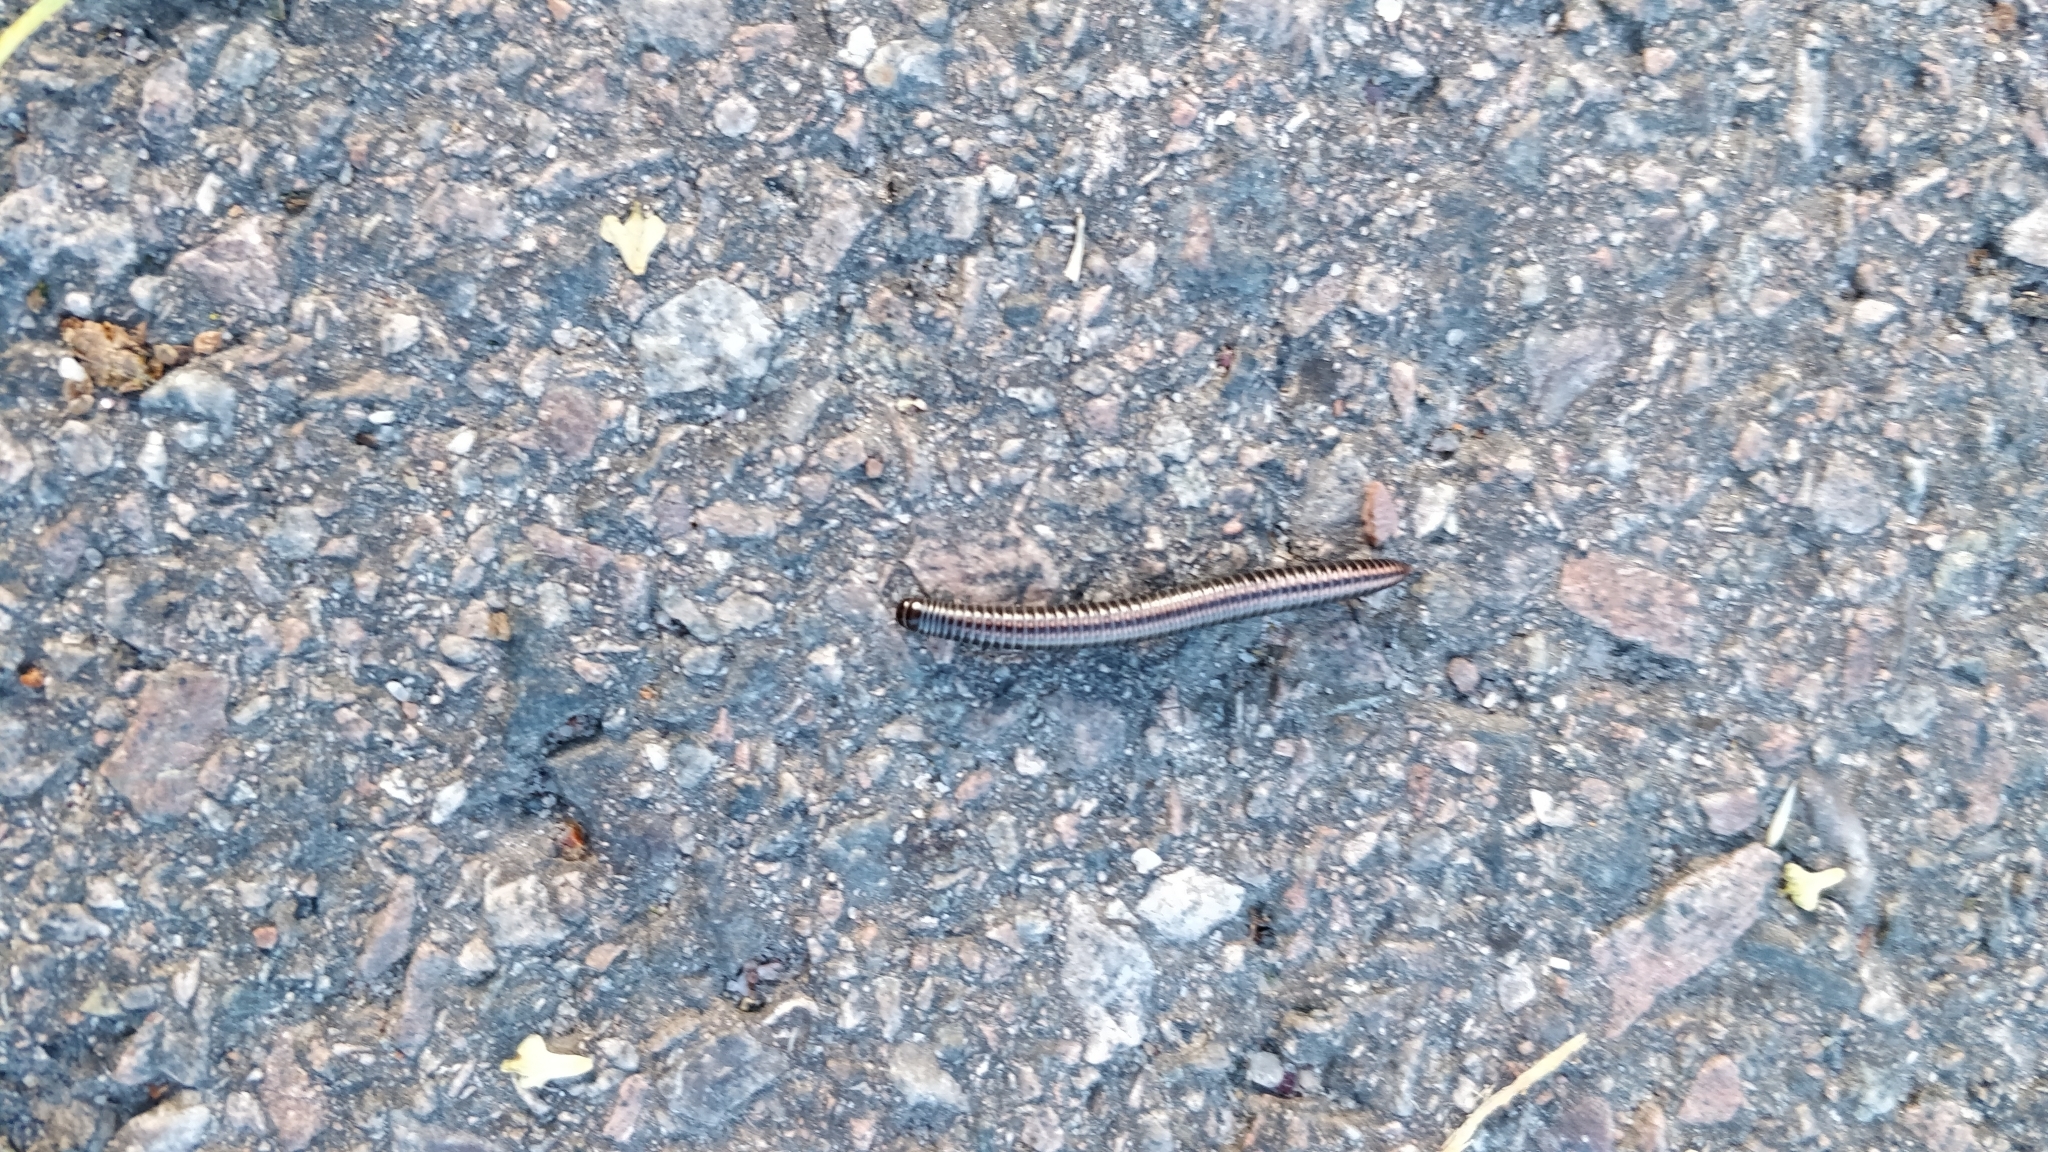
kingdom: Animalia
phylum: Arthropoda
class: Diplopoda
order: Julida
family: Julidae
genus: Ommatoiulus
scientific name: Ommatoiulus sabulosus
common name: Striped millipede
